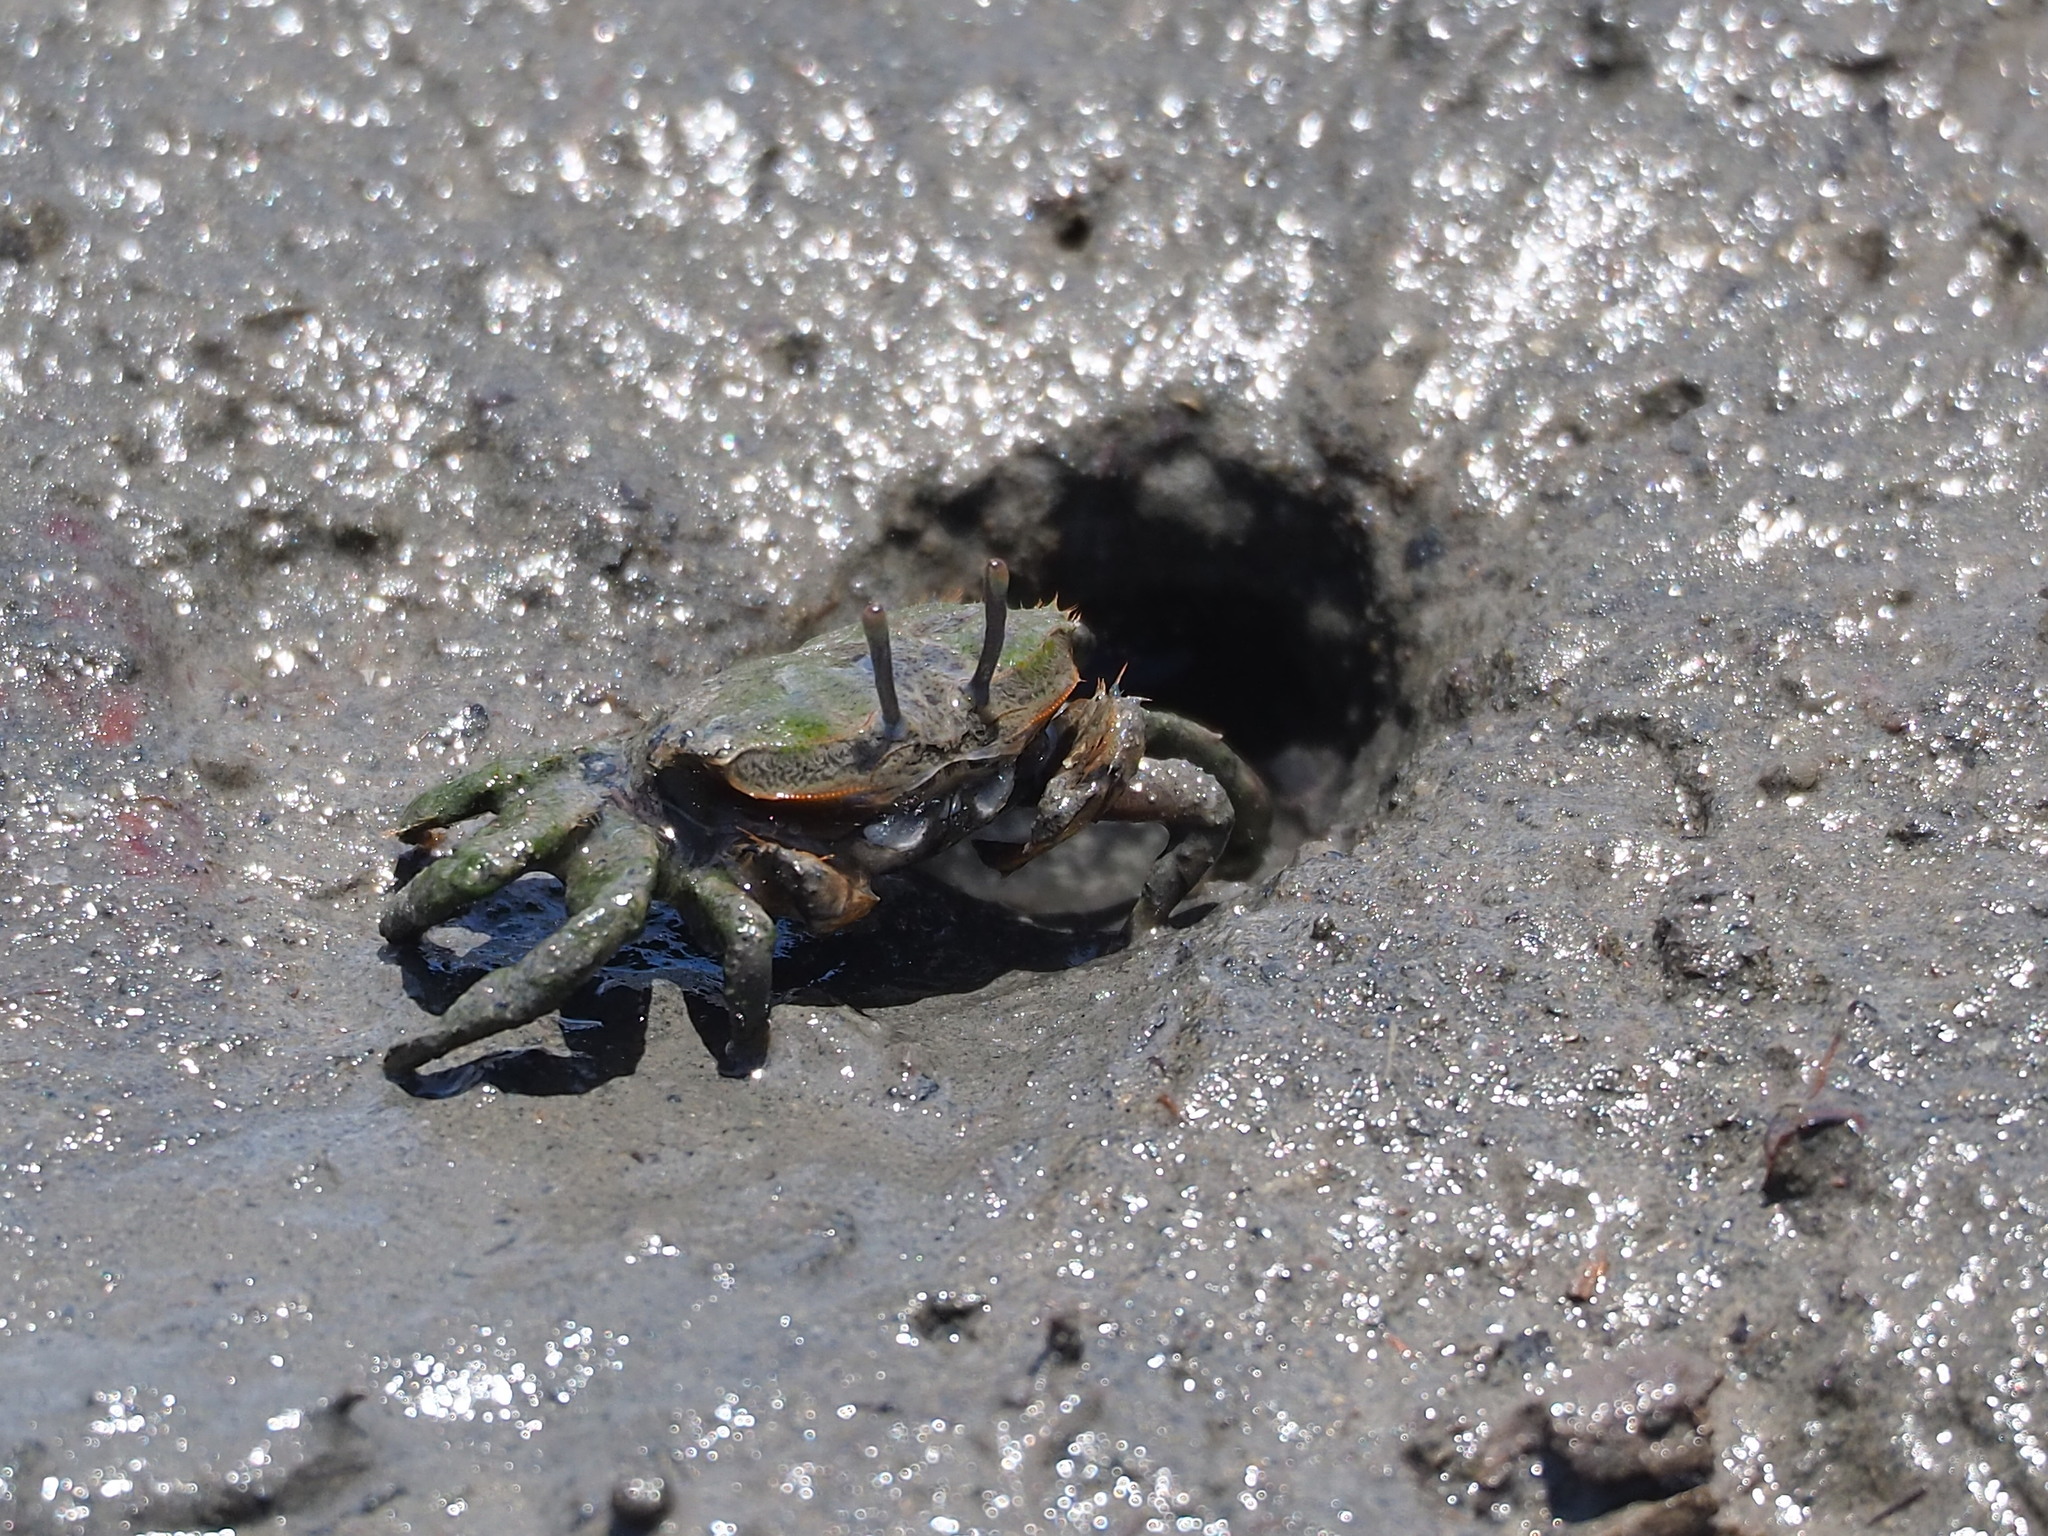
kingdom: Animalia
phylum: Arthropoda
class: Malacostraca
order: Decapoda
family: Macrophthalmidae
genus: Macrophthalmus
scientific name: Macrophthalmus banzai
